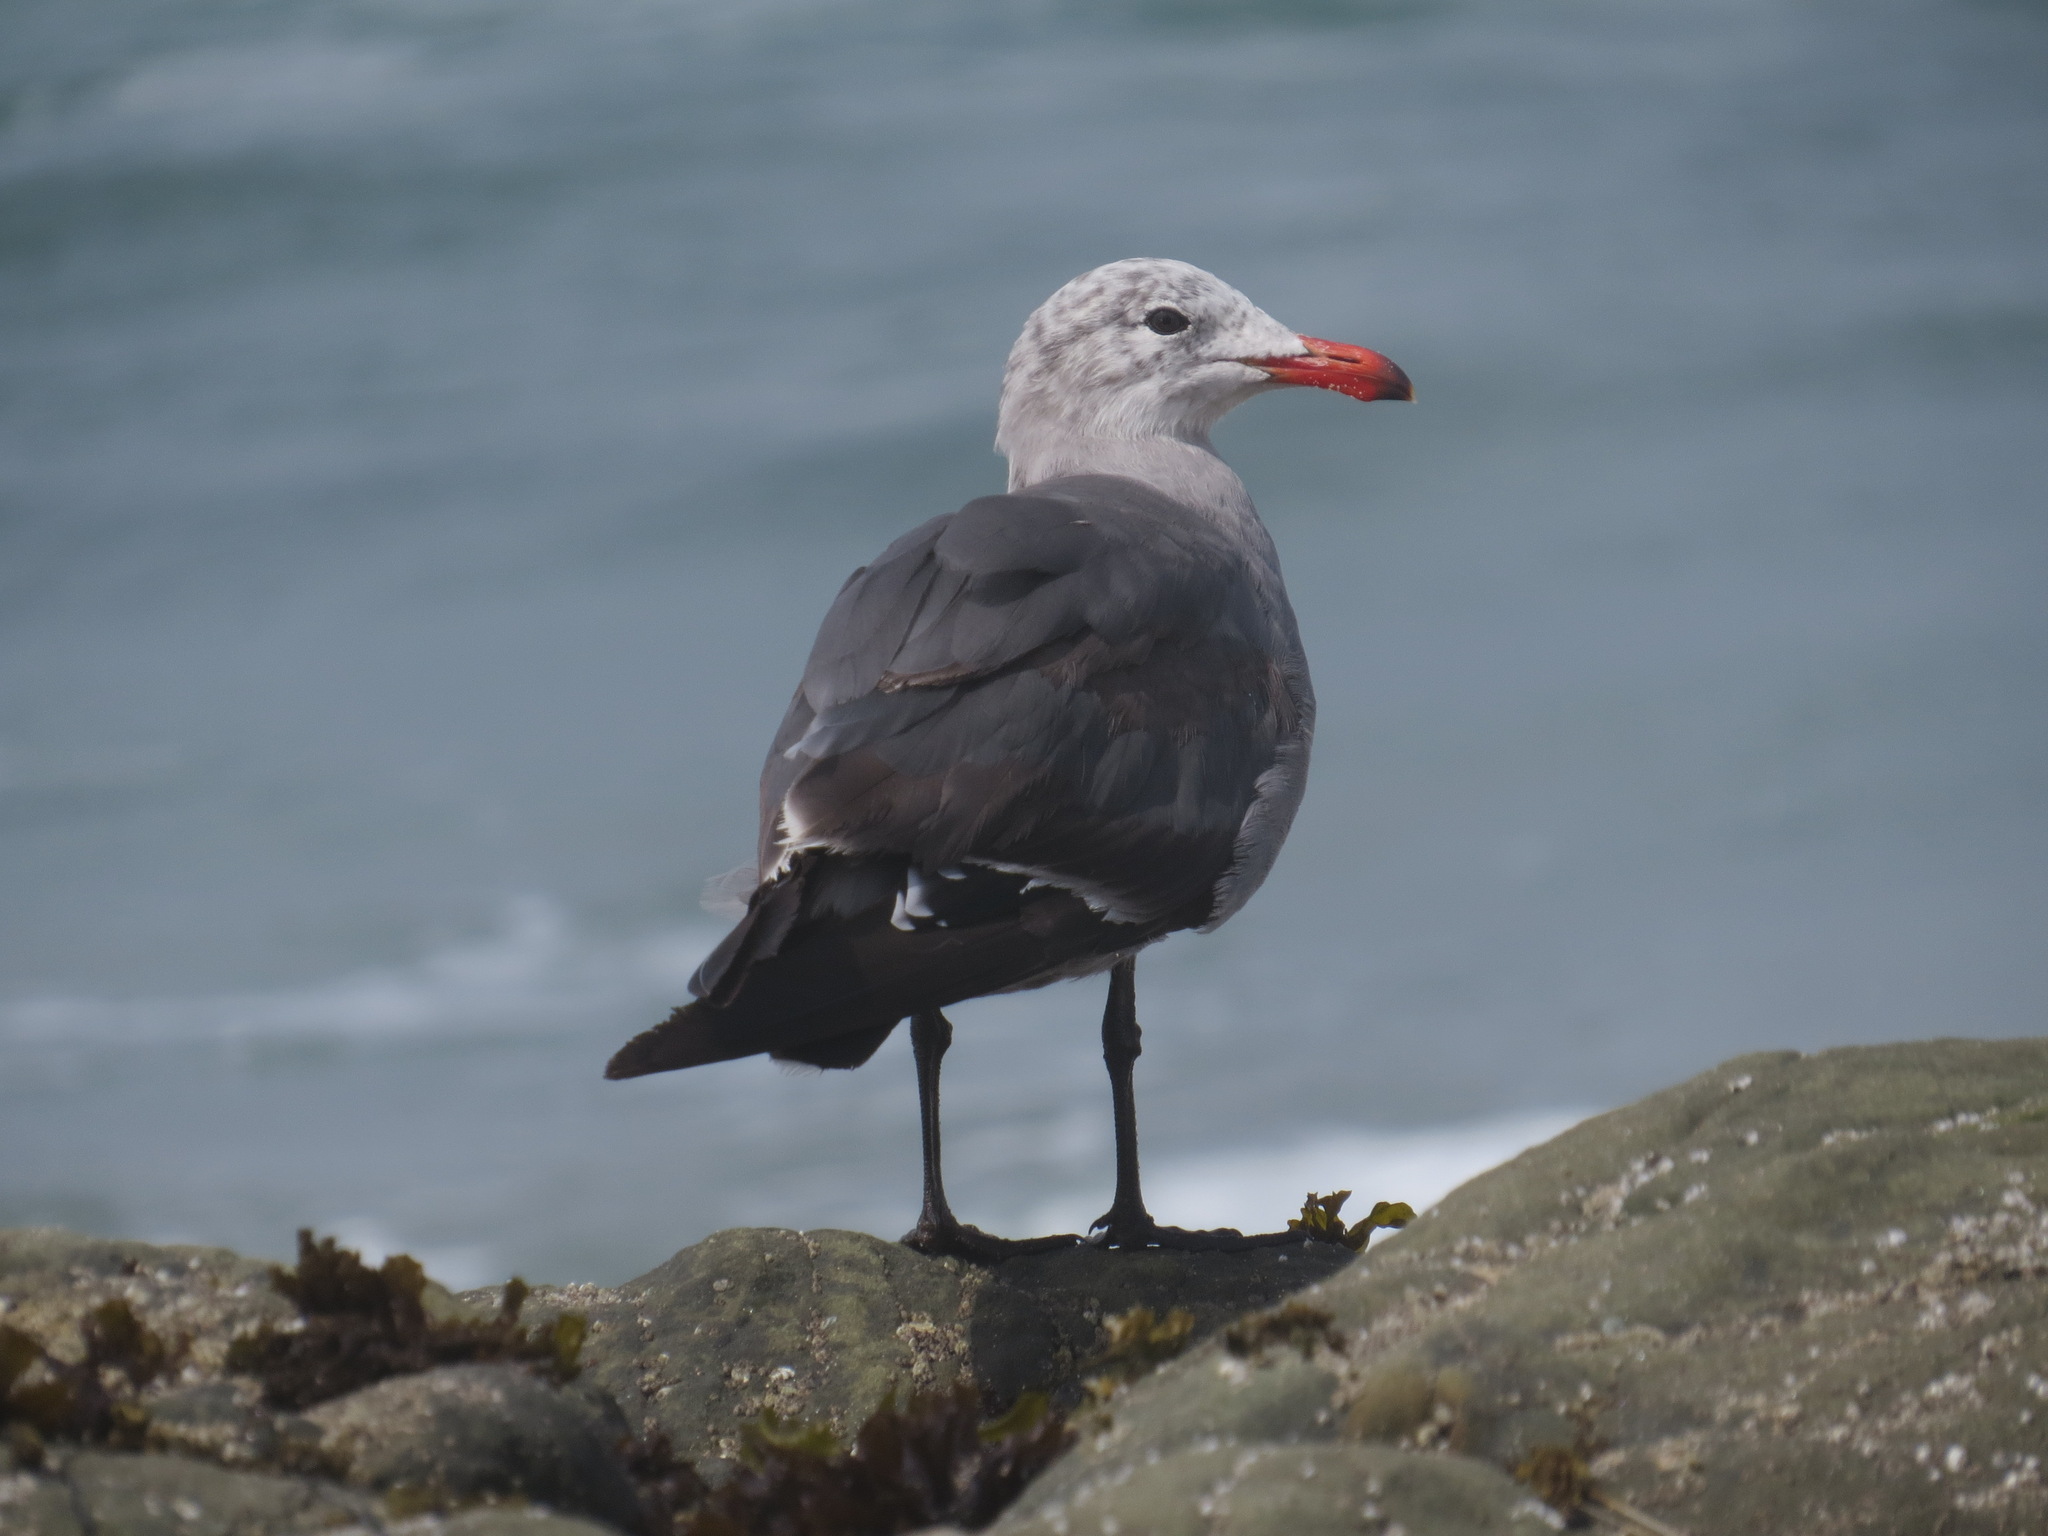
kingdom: Animalia
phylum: Chordata
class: Aves
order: Charadriiformes
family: Laridae
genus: Larus
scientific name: Larus heermanni
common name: Heermann's gull
